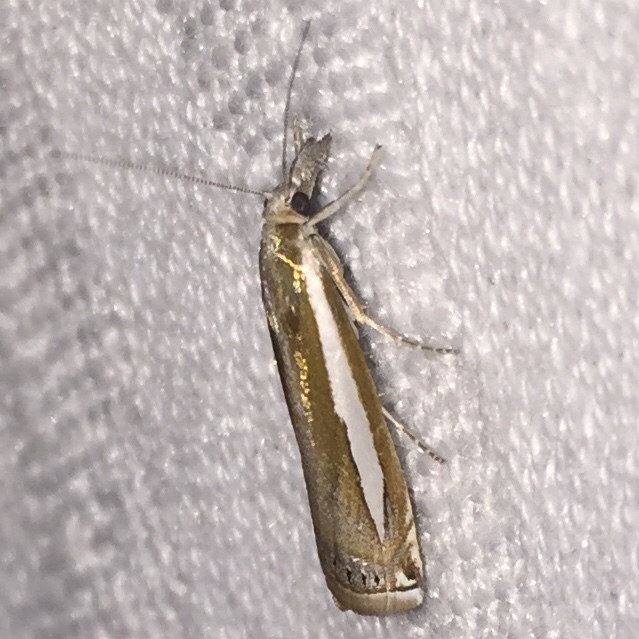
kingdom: Animalia
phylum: Arthropoda
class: Insecta
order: Lepidoptera
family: Crambidae
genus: Crambus
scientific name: Crambus praefectellus
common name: Common grass-veneer
